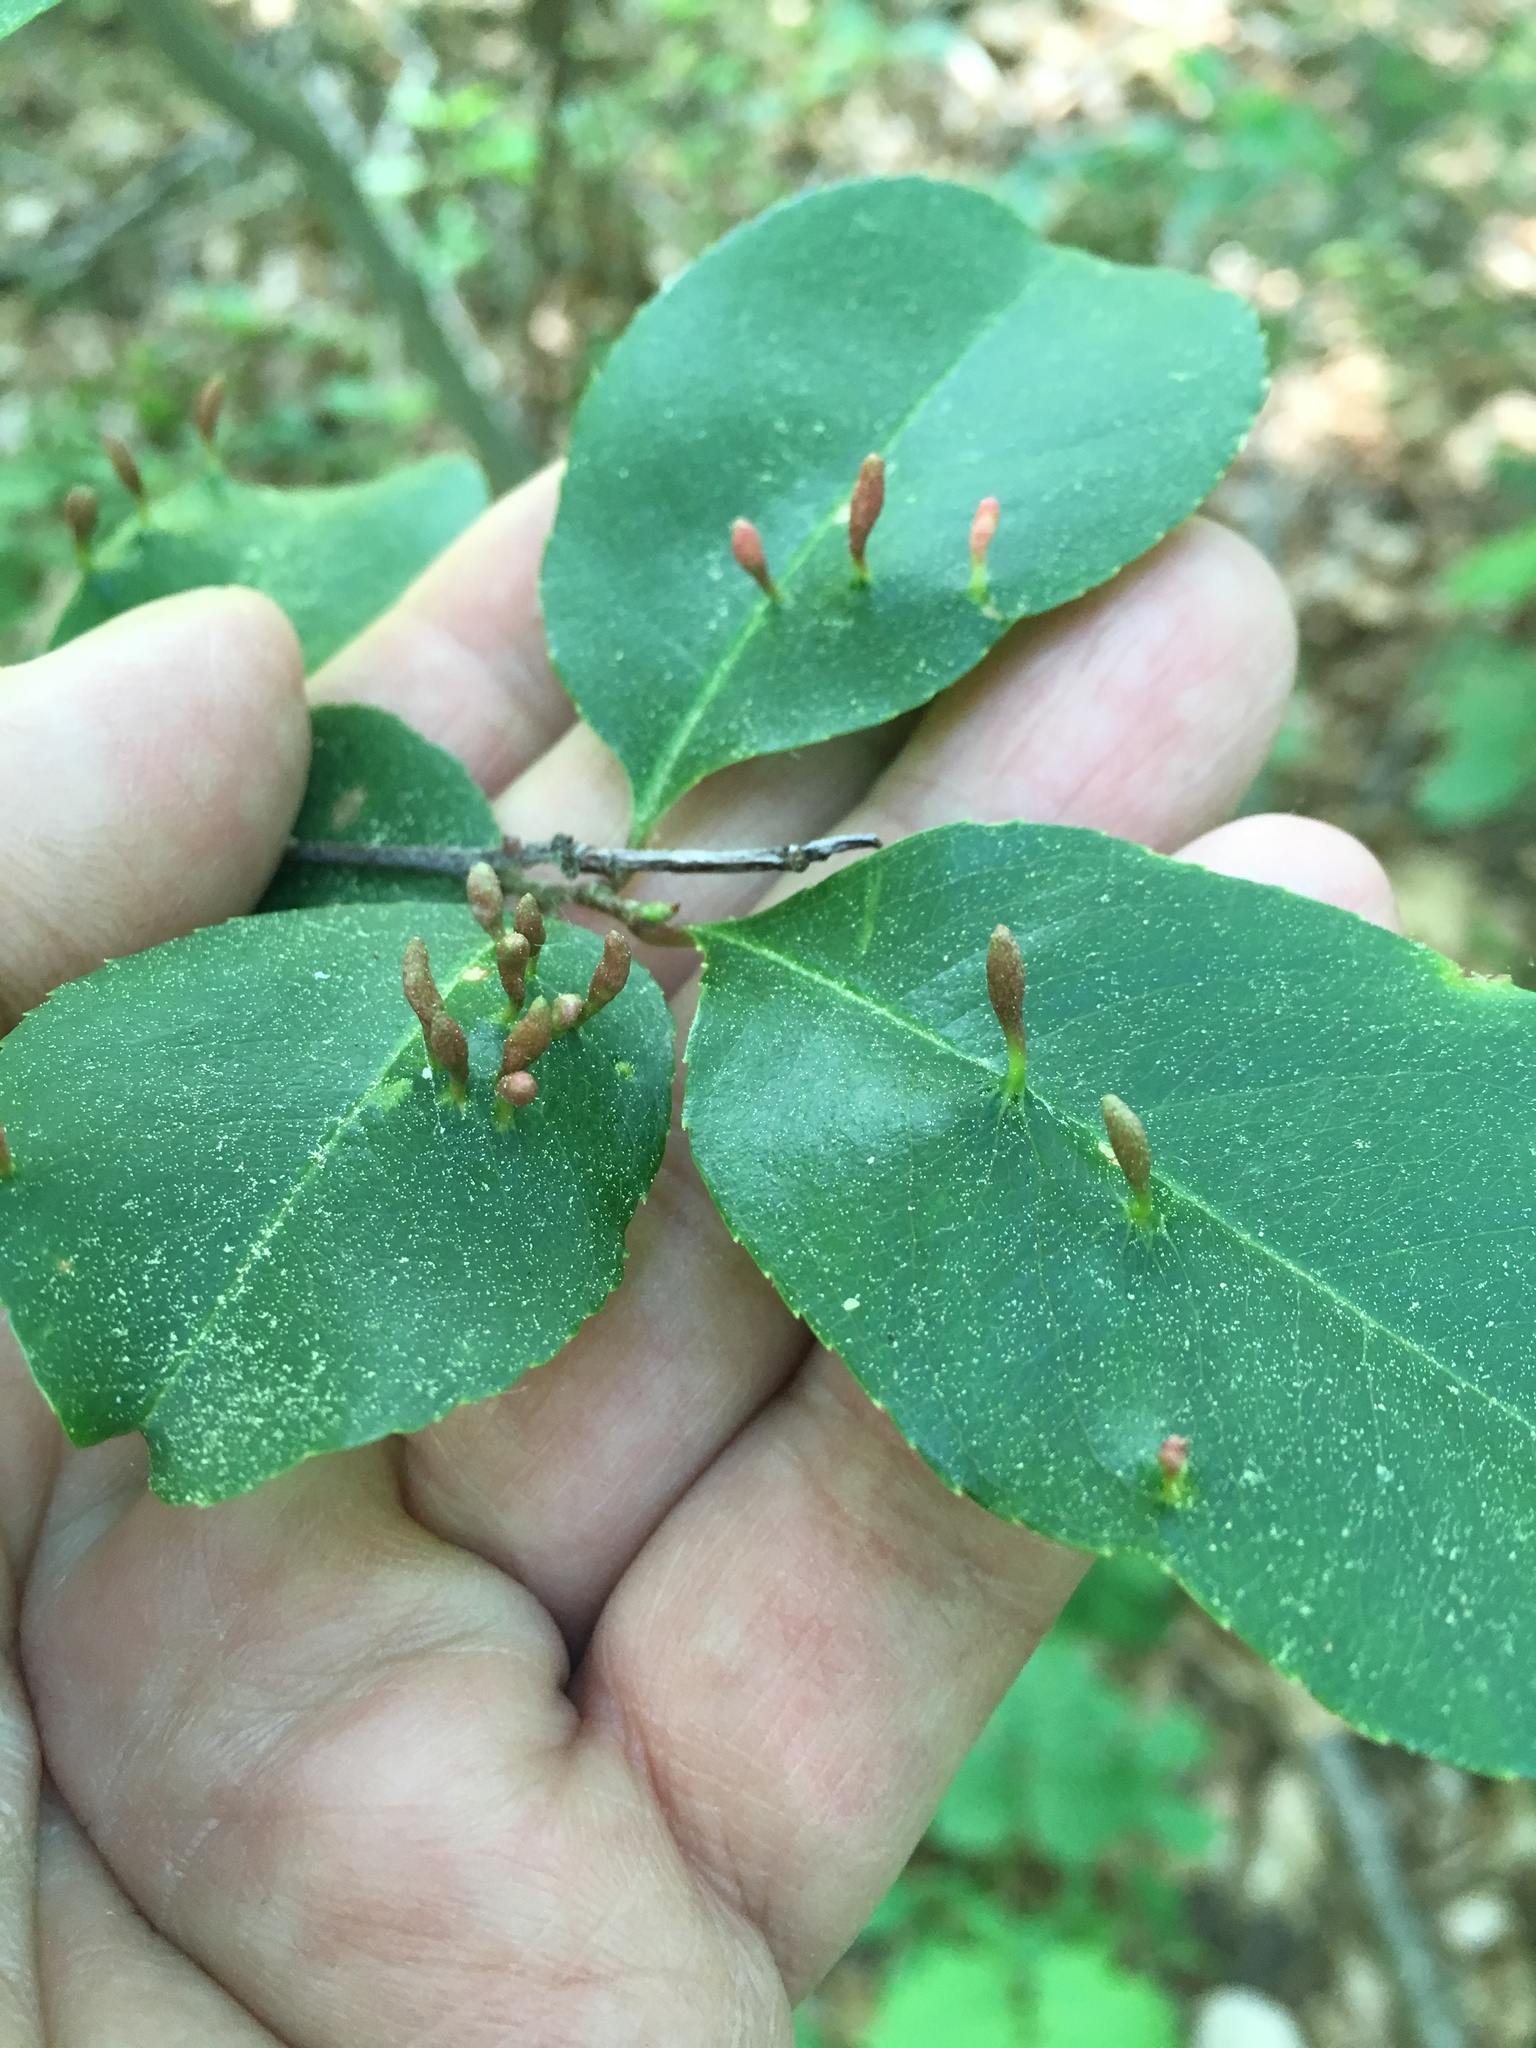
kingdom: Plantae
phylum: Tracheophyta
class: Magnoliopsida
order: Rosales
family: Rosaceae
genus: Prunus
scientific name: Prunus serotina
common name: Black cherry
